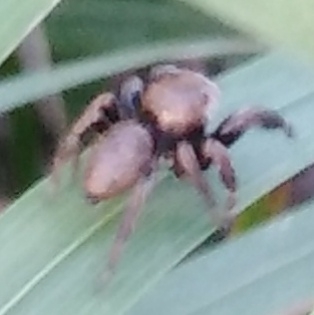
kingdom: Animalia
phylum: Arthropoda
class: Arachnida
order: Araneae
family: Salticidae
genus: Evarcha
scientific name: Evarcha arcuata
